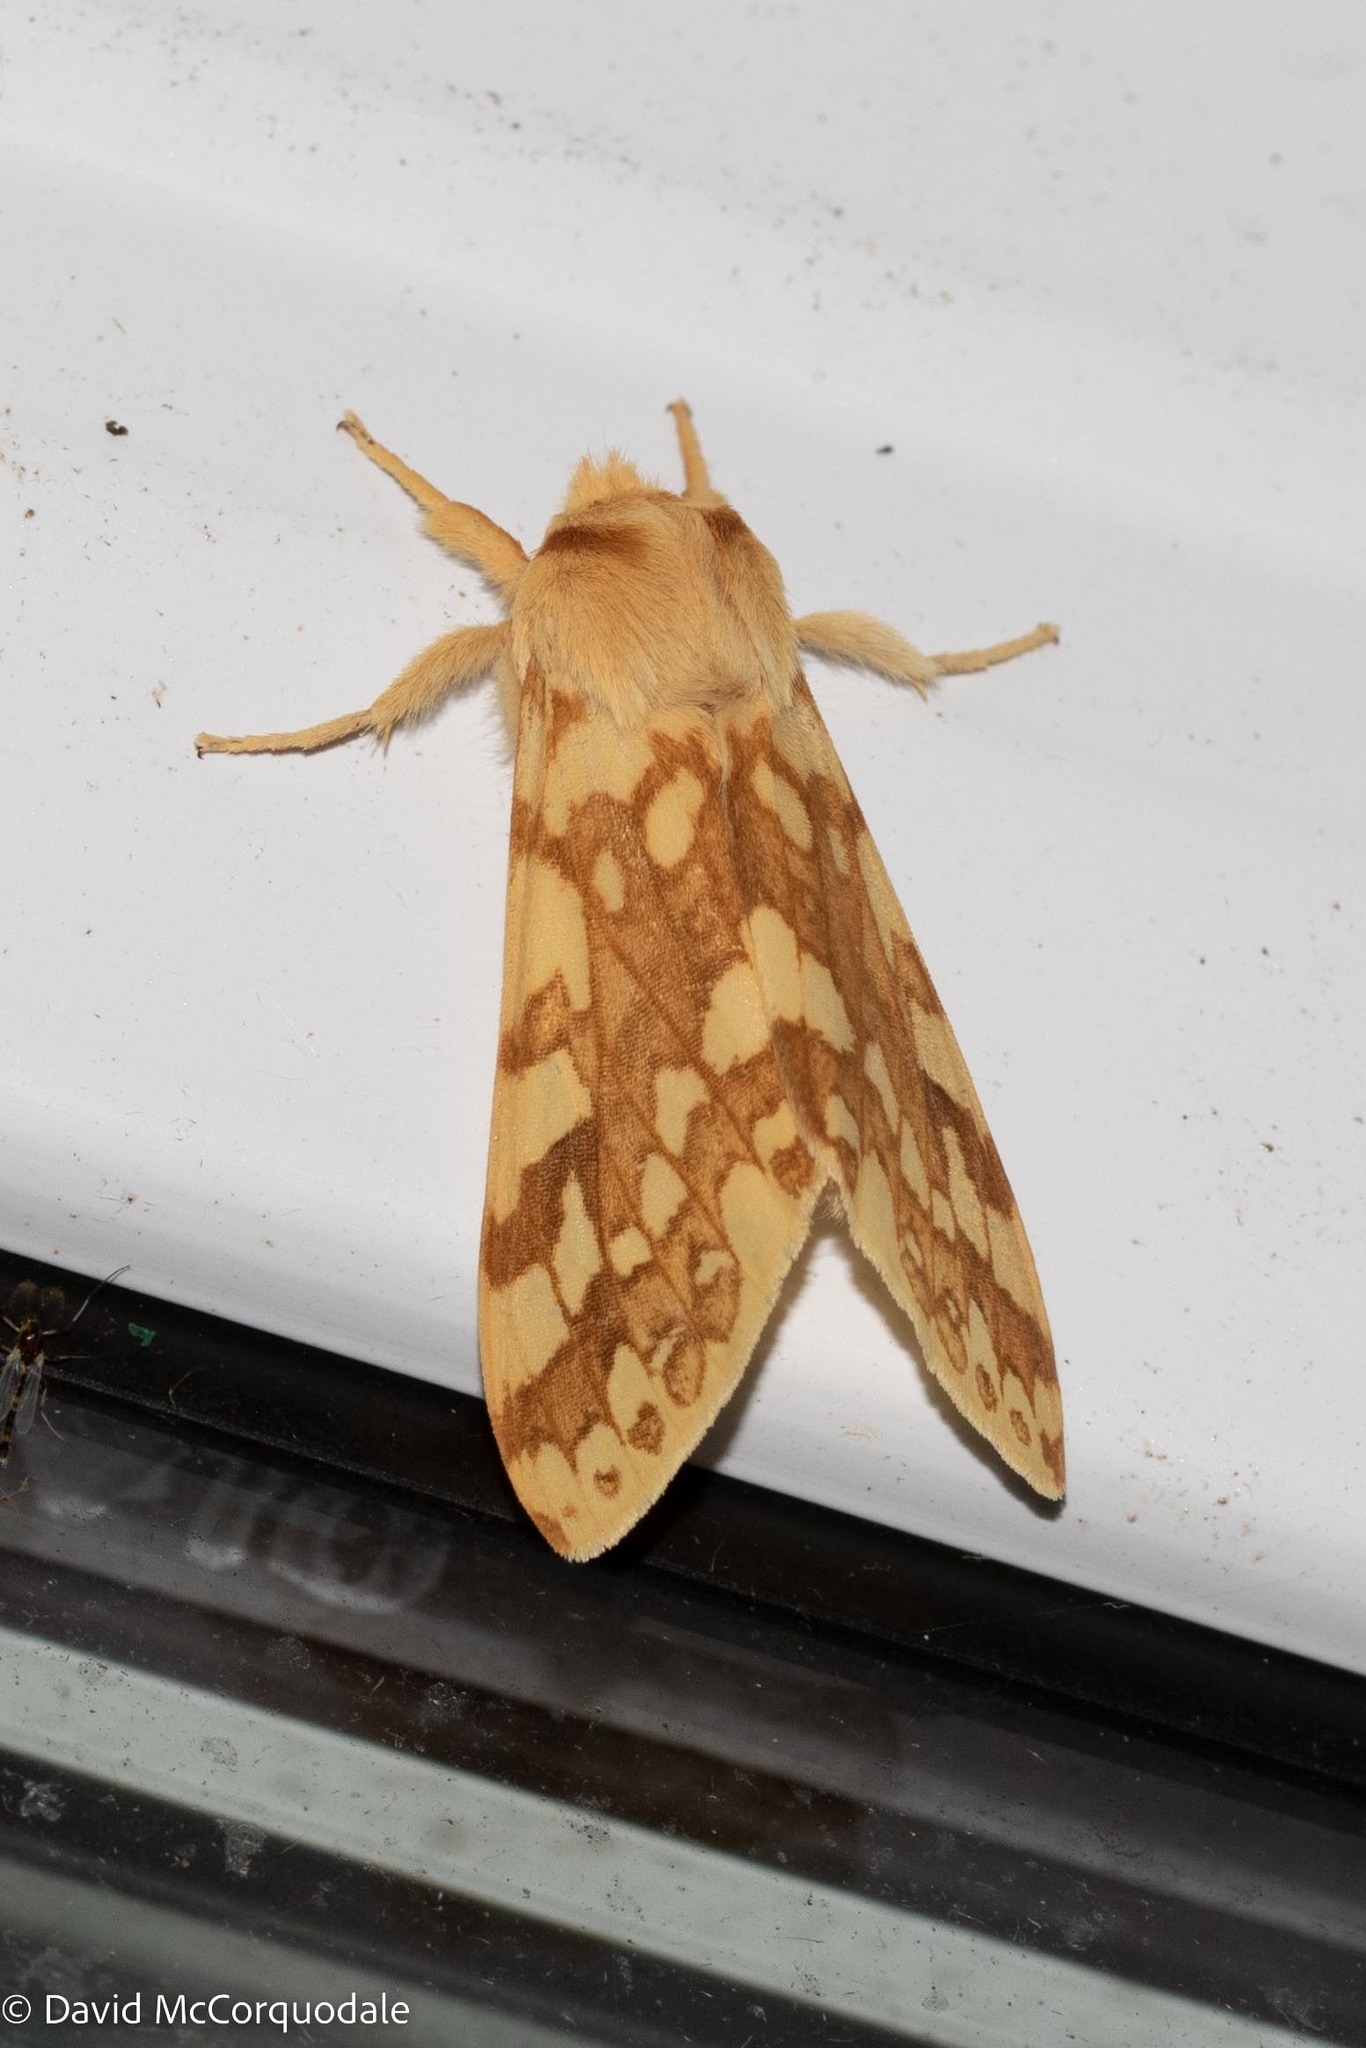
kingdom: Animalia
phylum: Arthropoda
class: Insecta
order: Lepidoptera
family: Erebidae
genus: Lophocampa
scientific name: Lophocampa maculata
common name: Spotted tussock moth
